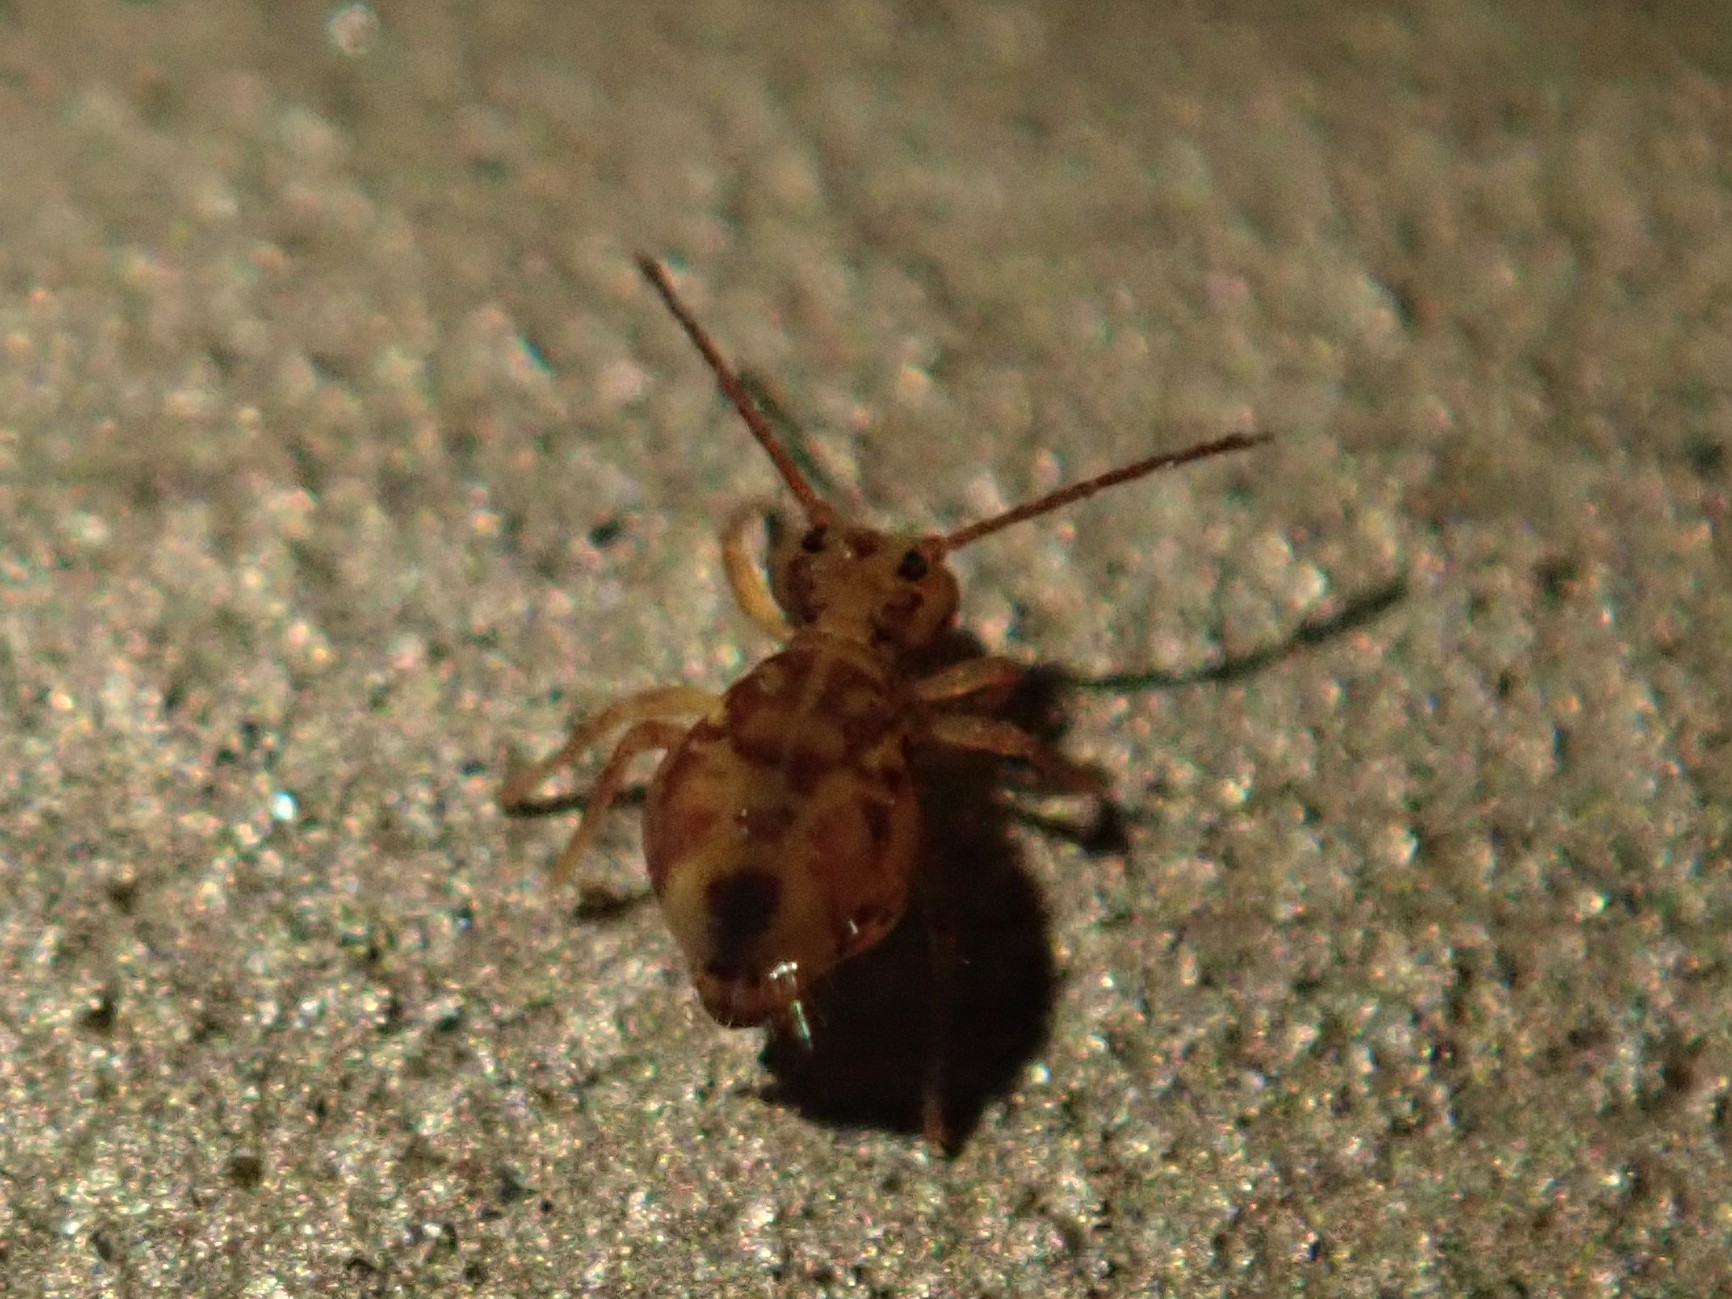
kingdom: Animalia
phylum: Arthropoda
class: Collembola
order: Symphypleona
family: Dicyrtomidae
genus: Dicyrtomina
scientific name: Dicyrtomina ornata
